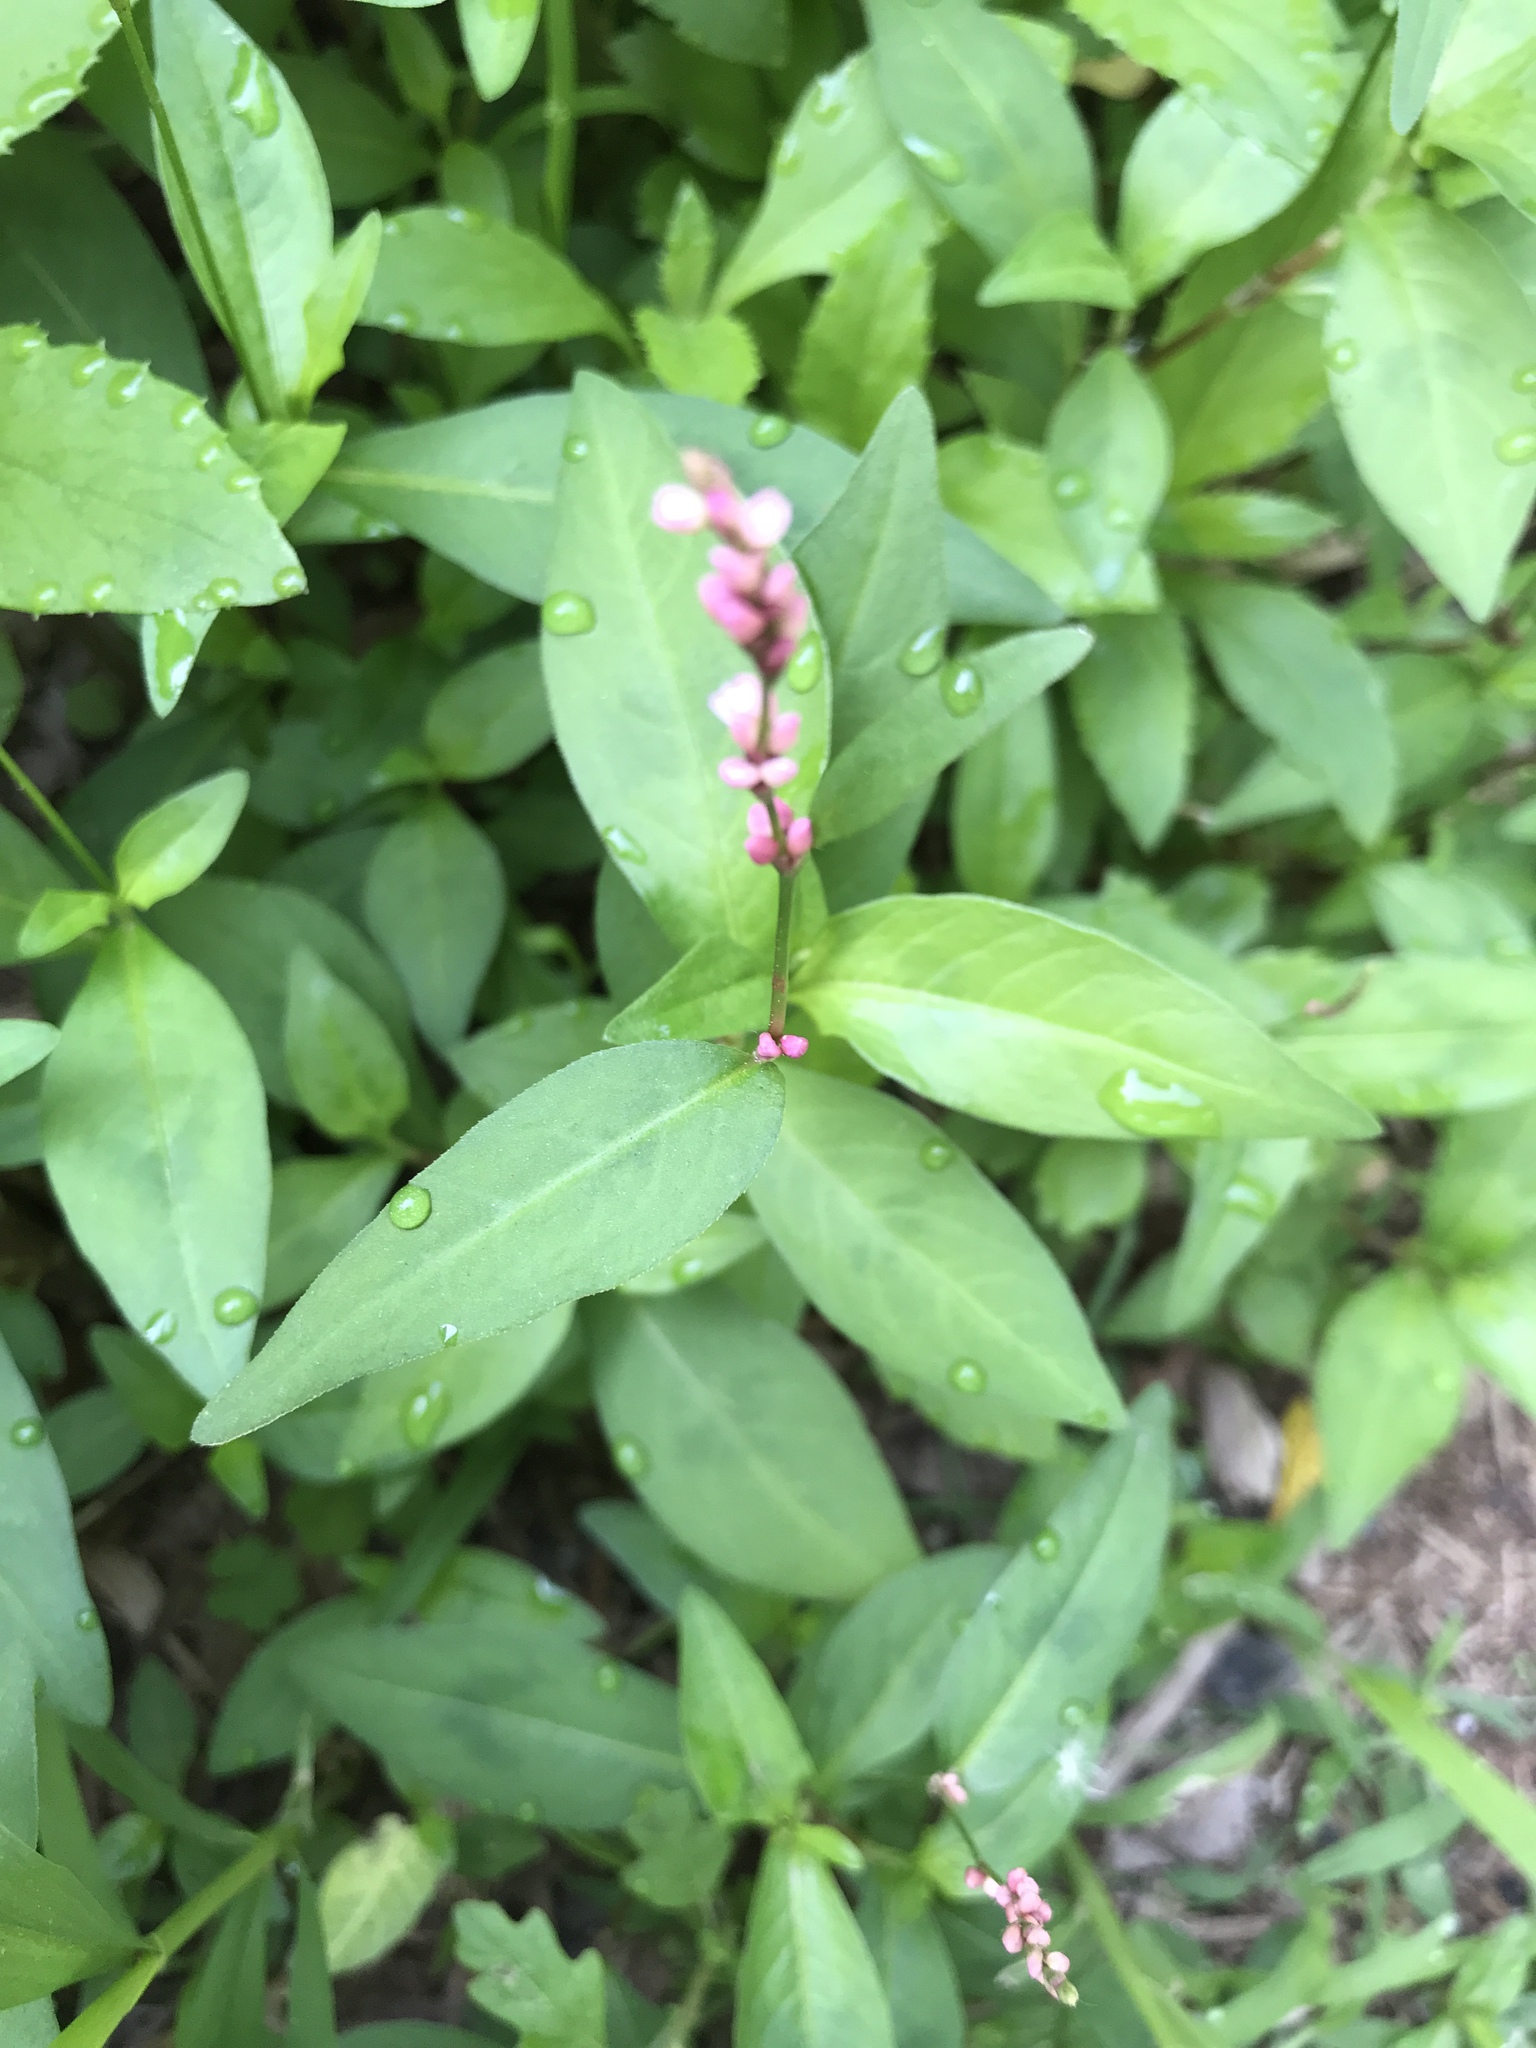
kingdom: Plantae
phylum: Tracheophyta
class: Magnoliopsida
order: Caryophyllales
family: Polygonaceae
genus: Persicaria
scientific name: Persicaria longiseta
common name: Bristly lady's-thumb
